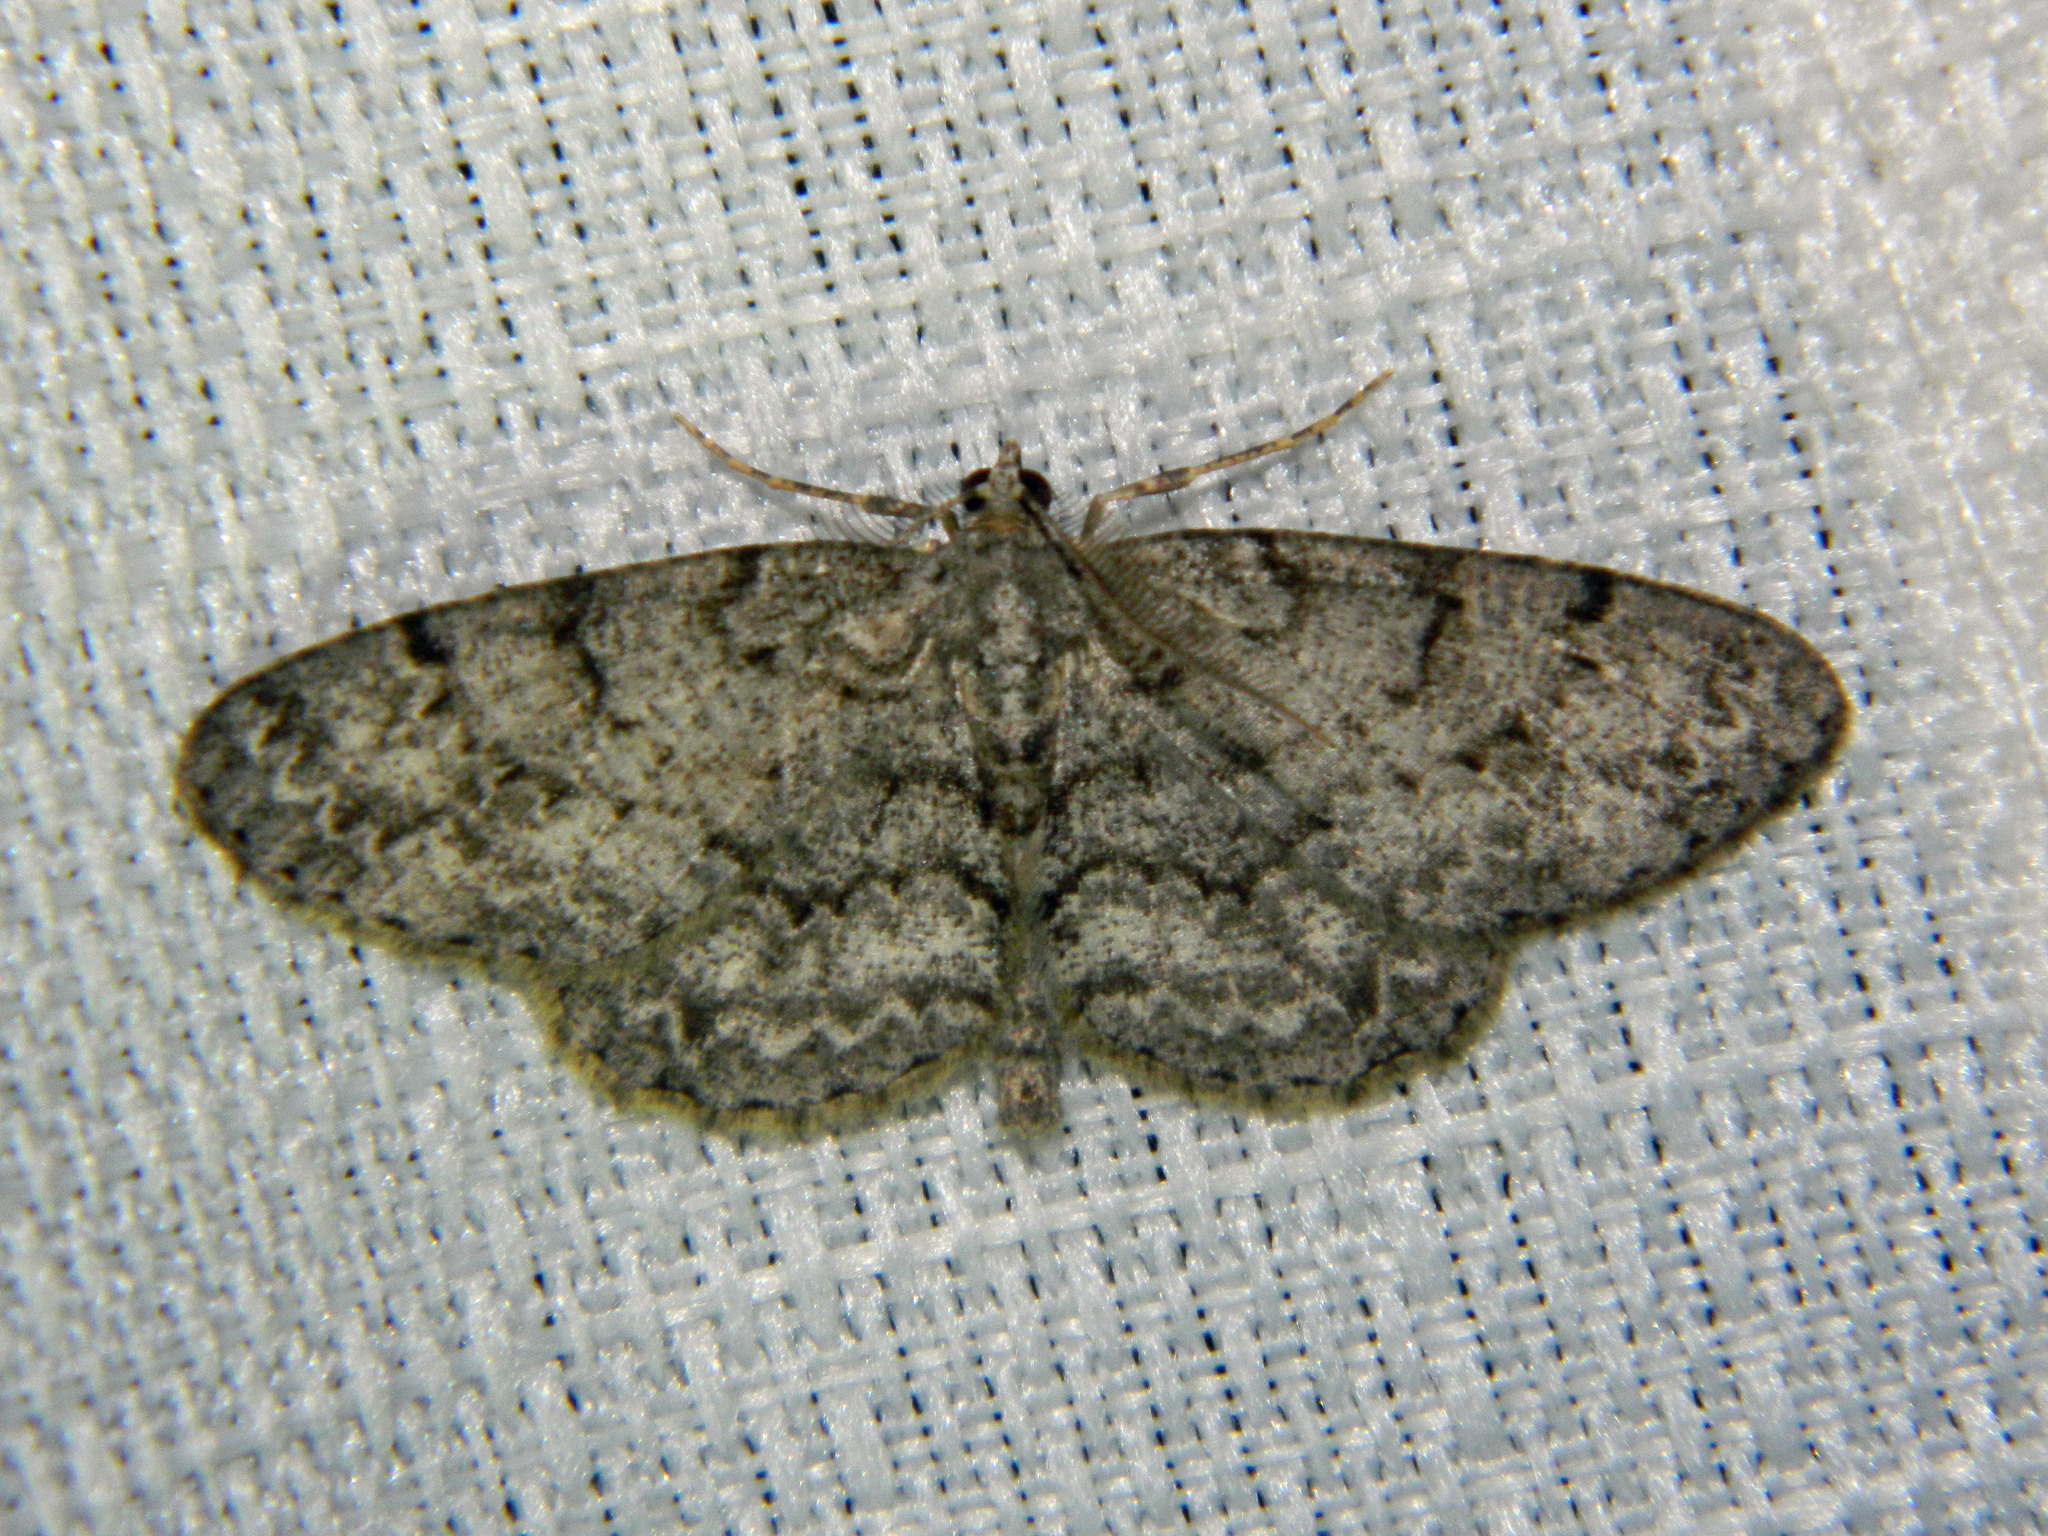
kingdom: Animalia
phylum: Arthropoda
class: Insecta
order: Lepidoptera
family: Geometridae
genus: Protoboarmia
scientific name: Protoboarmia porcelaria
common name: Porcelain gray
